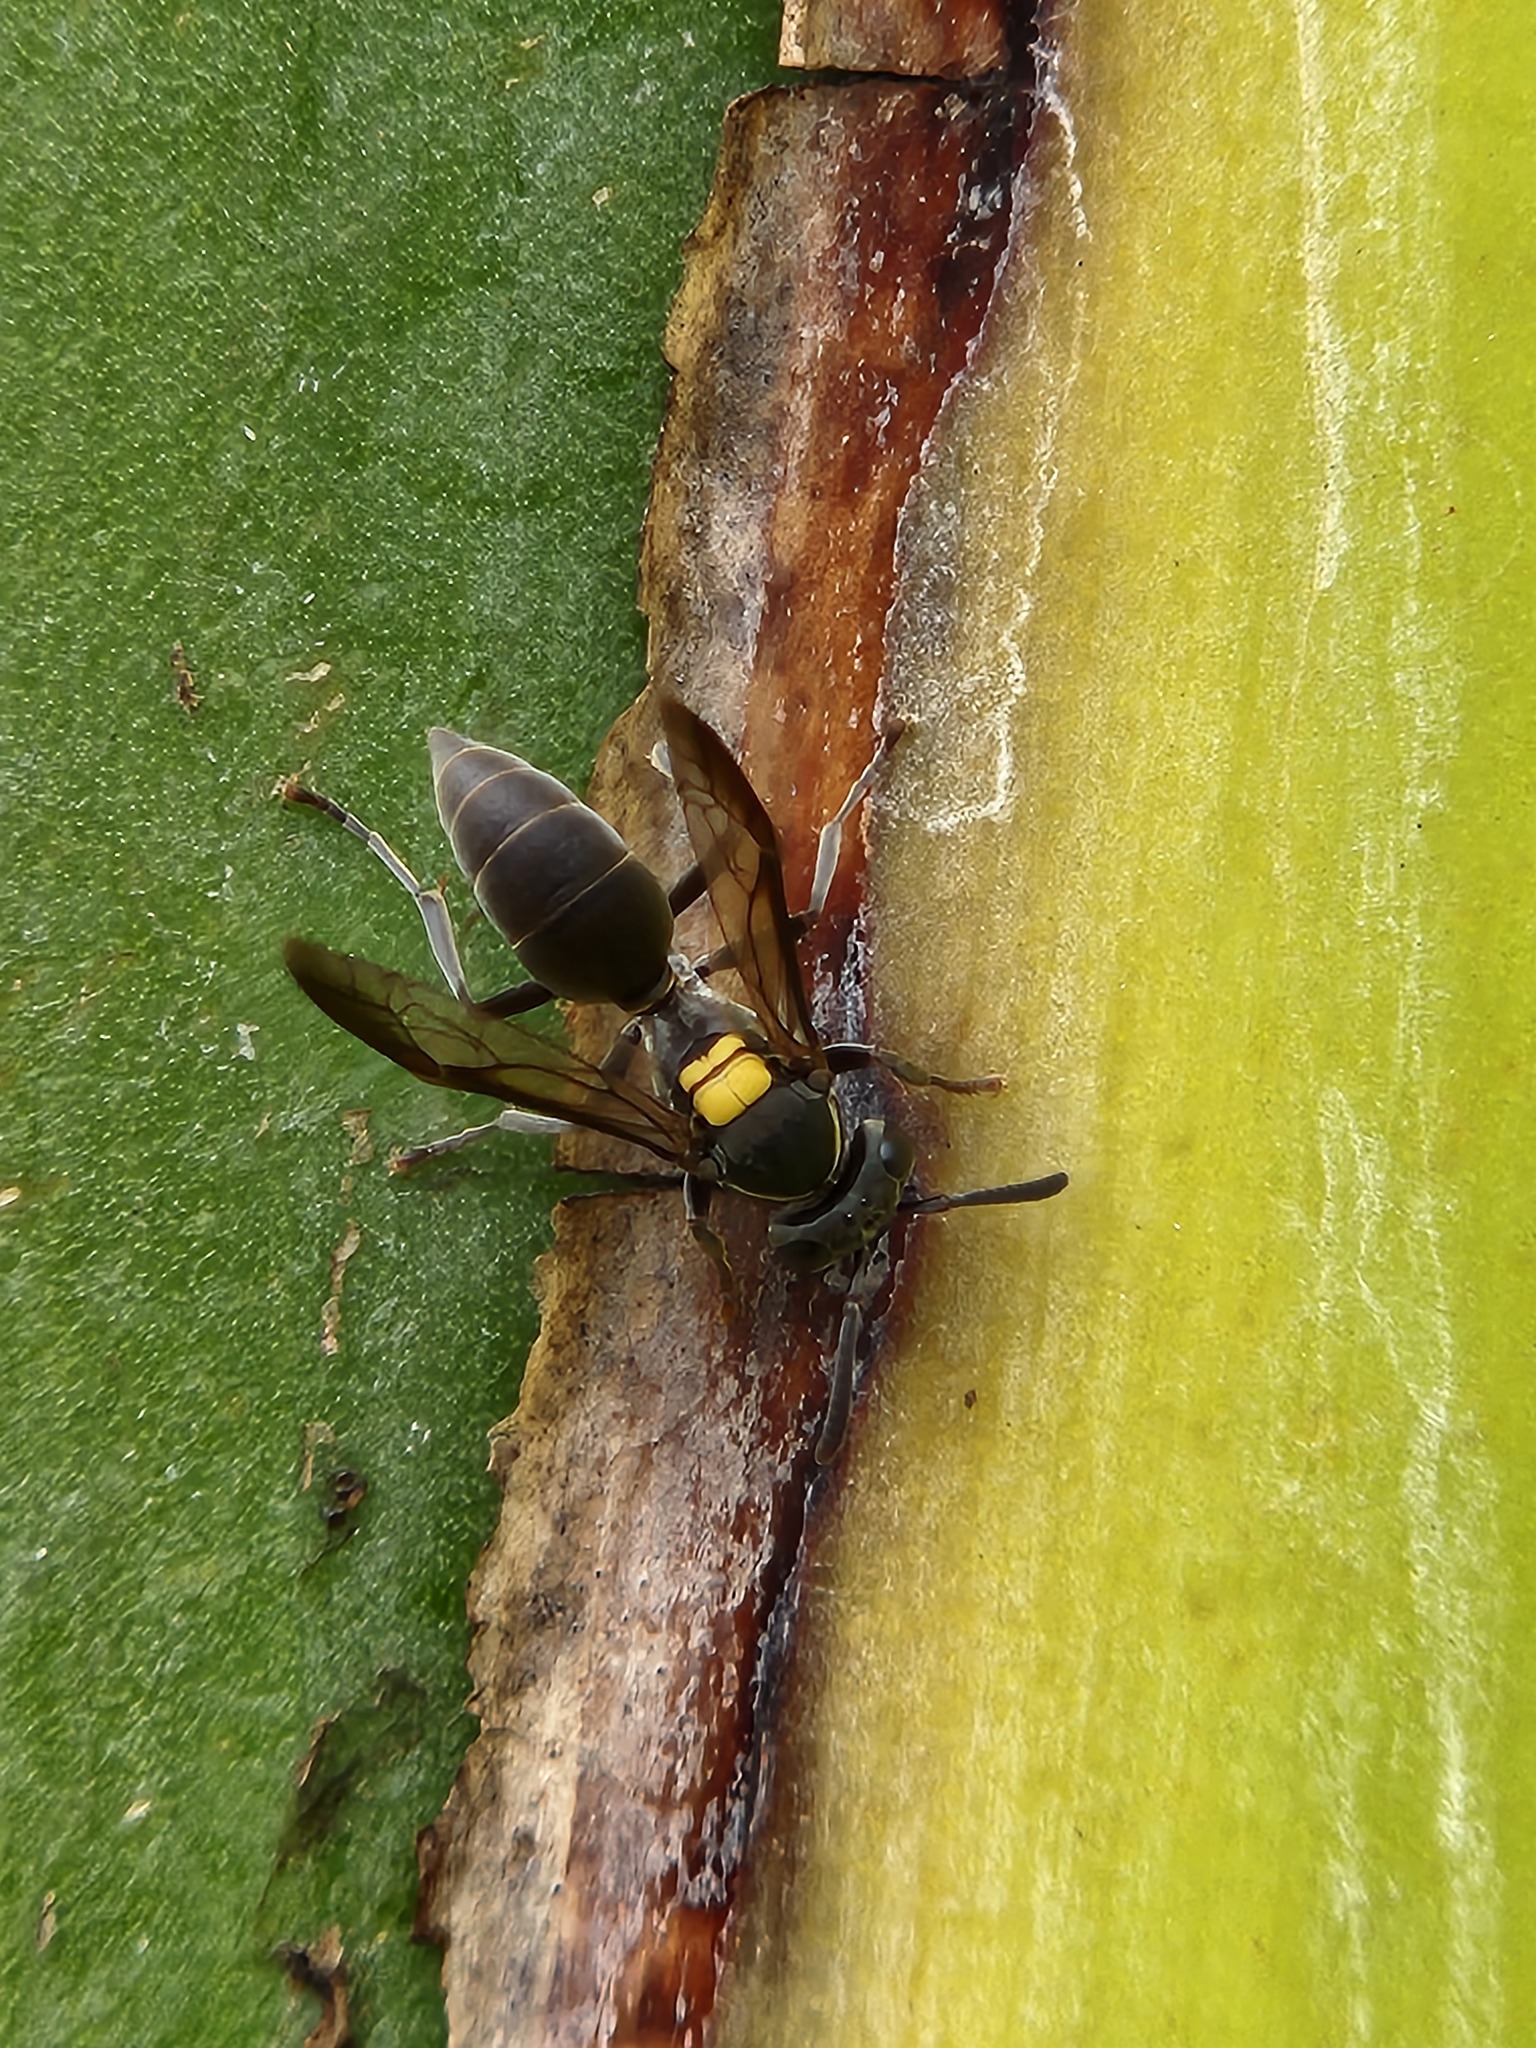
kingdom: Animalia
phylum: Arthropoda
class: Insecta
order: Hymenoptera
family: Eumenidae
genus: Polybia
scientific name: Polybia paulista
